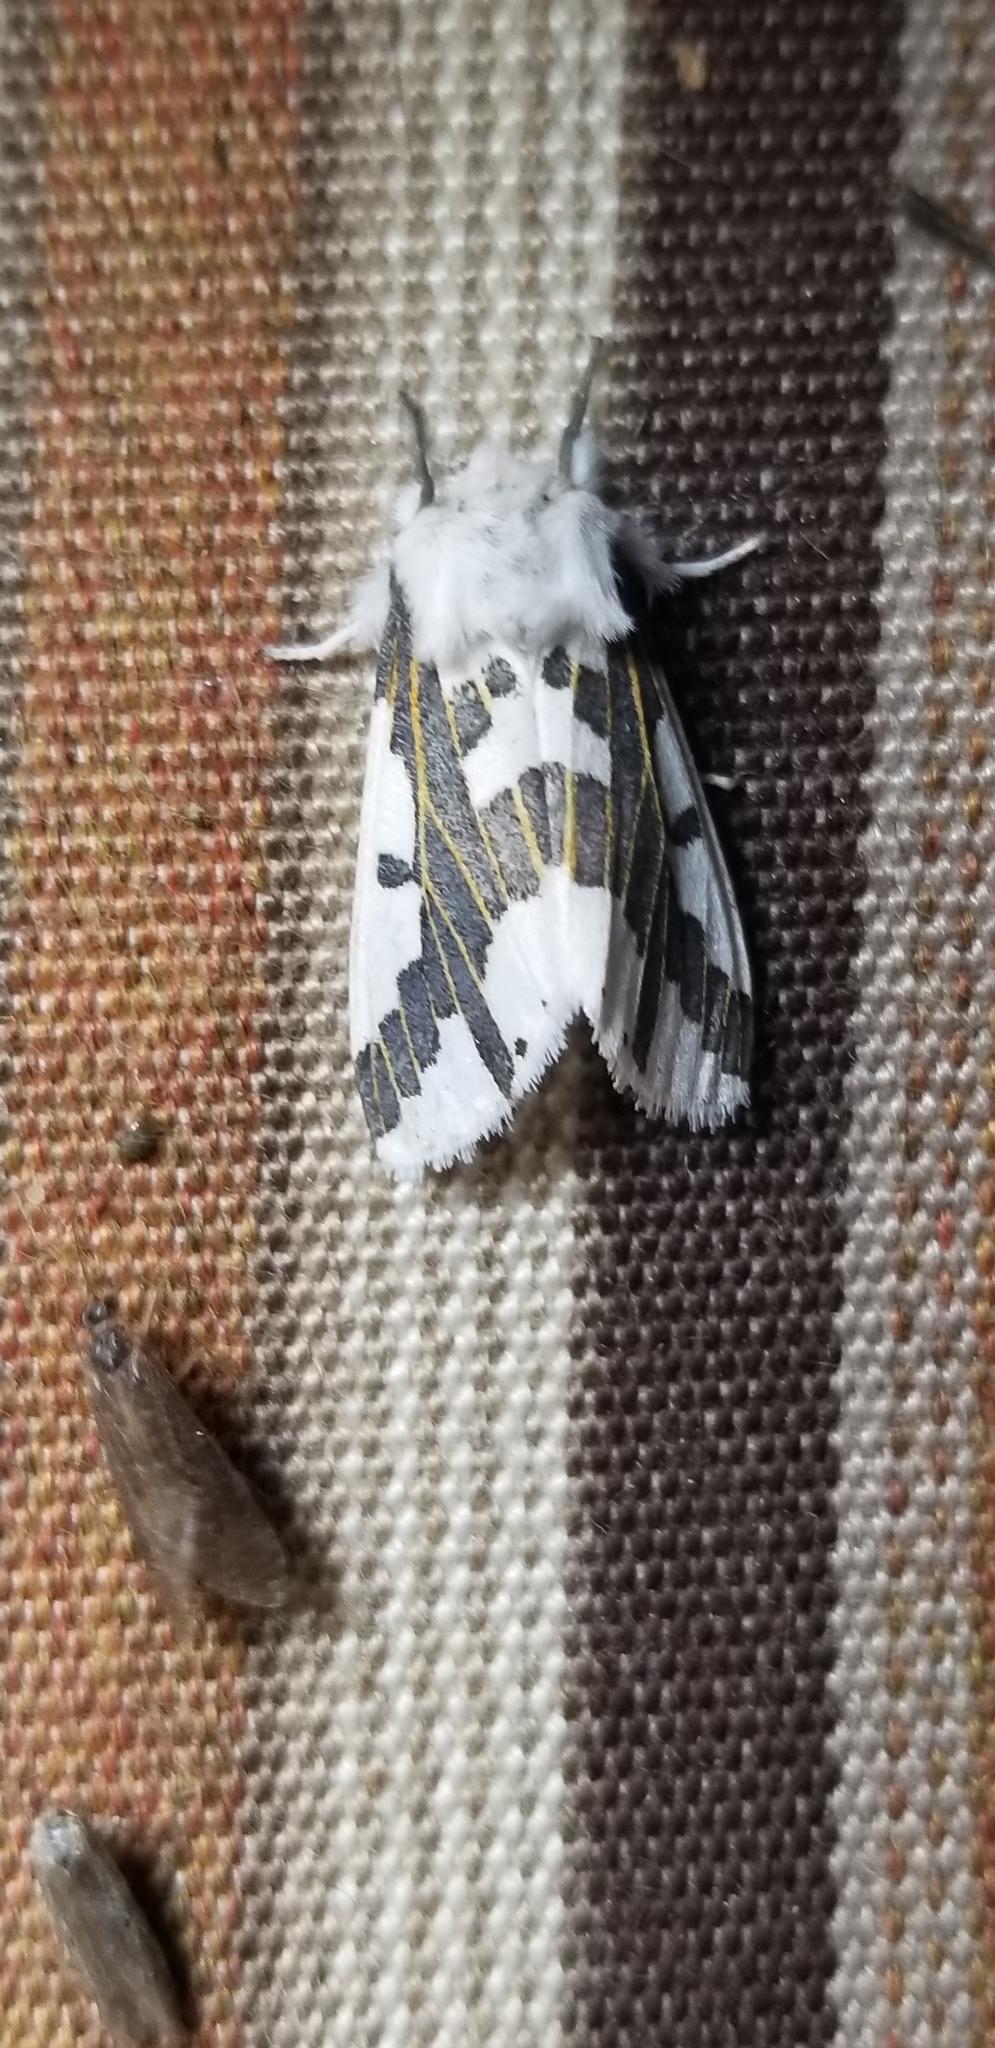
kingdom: Animalia
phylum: Arthropoda
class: Insecta
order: Lepidoptera
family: Erebidae
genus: Euerythra
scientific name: Euerythra phasma
